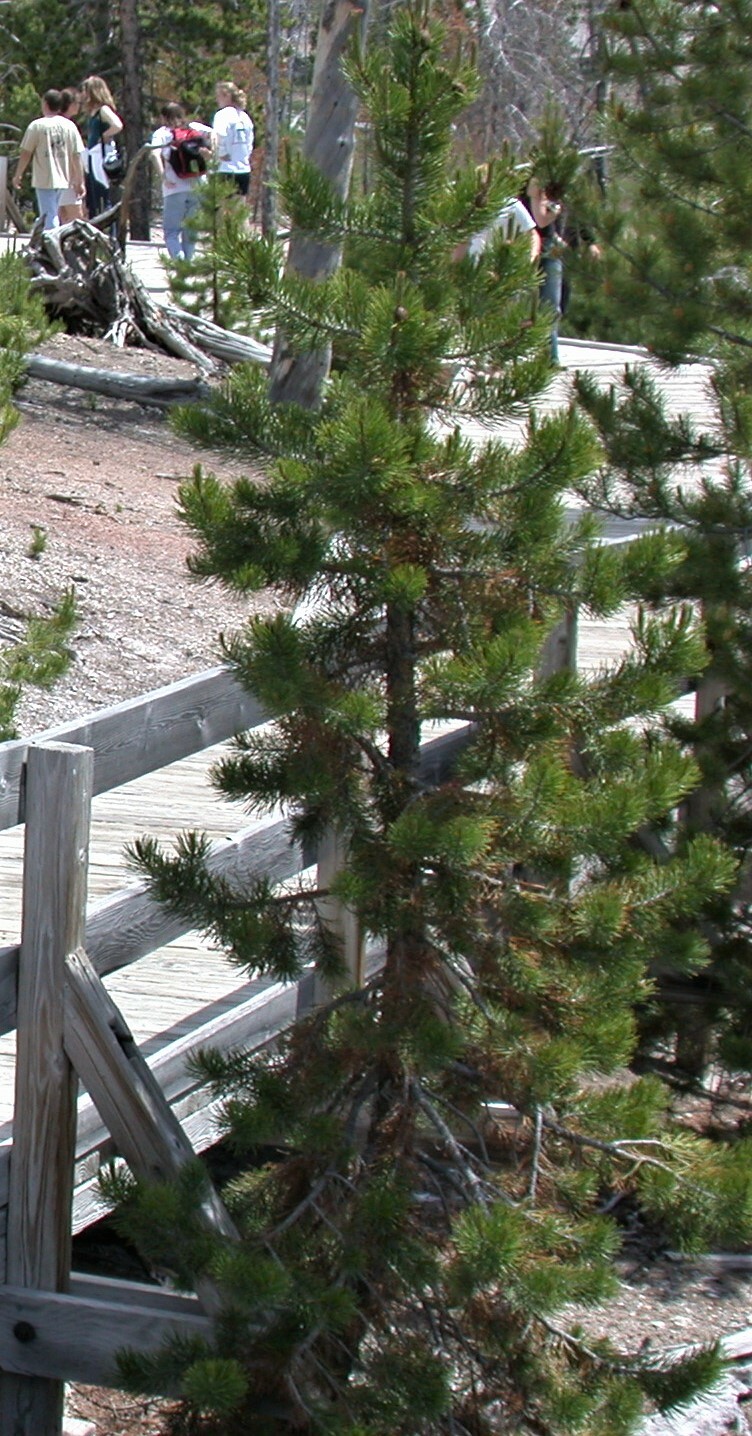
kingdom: Plantae
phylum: Tracheophyta
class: Pinopsida
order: Pinales
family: Pinaceae
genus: Pinus
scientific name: Pinus contorta
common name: Lodgepole pine
